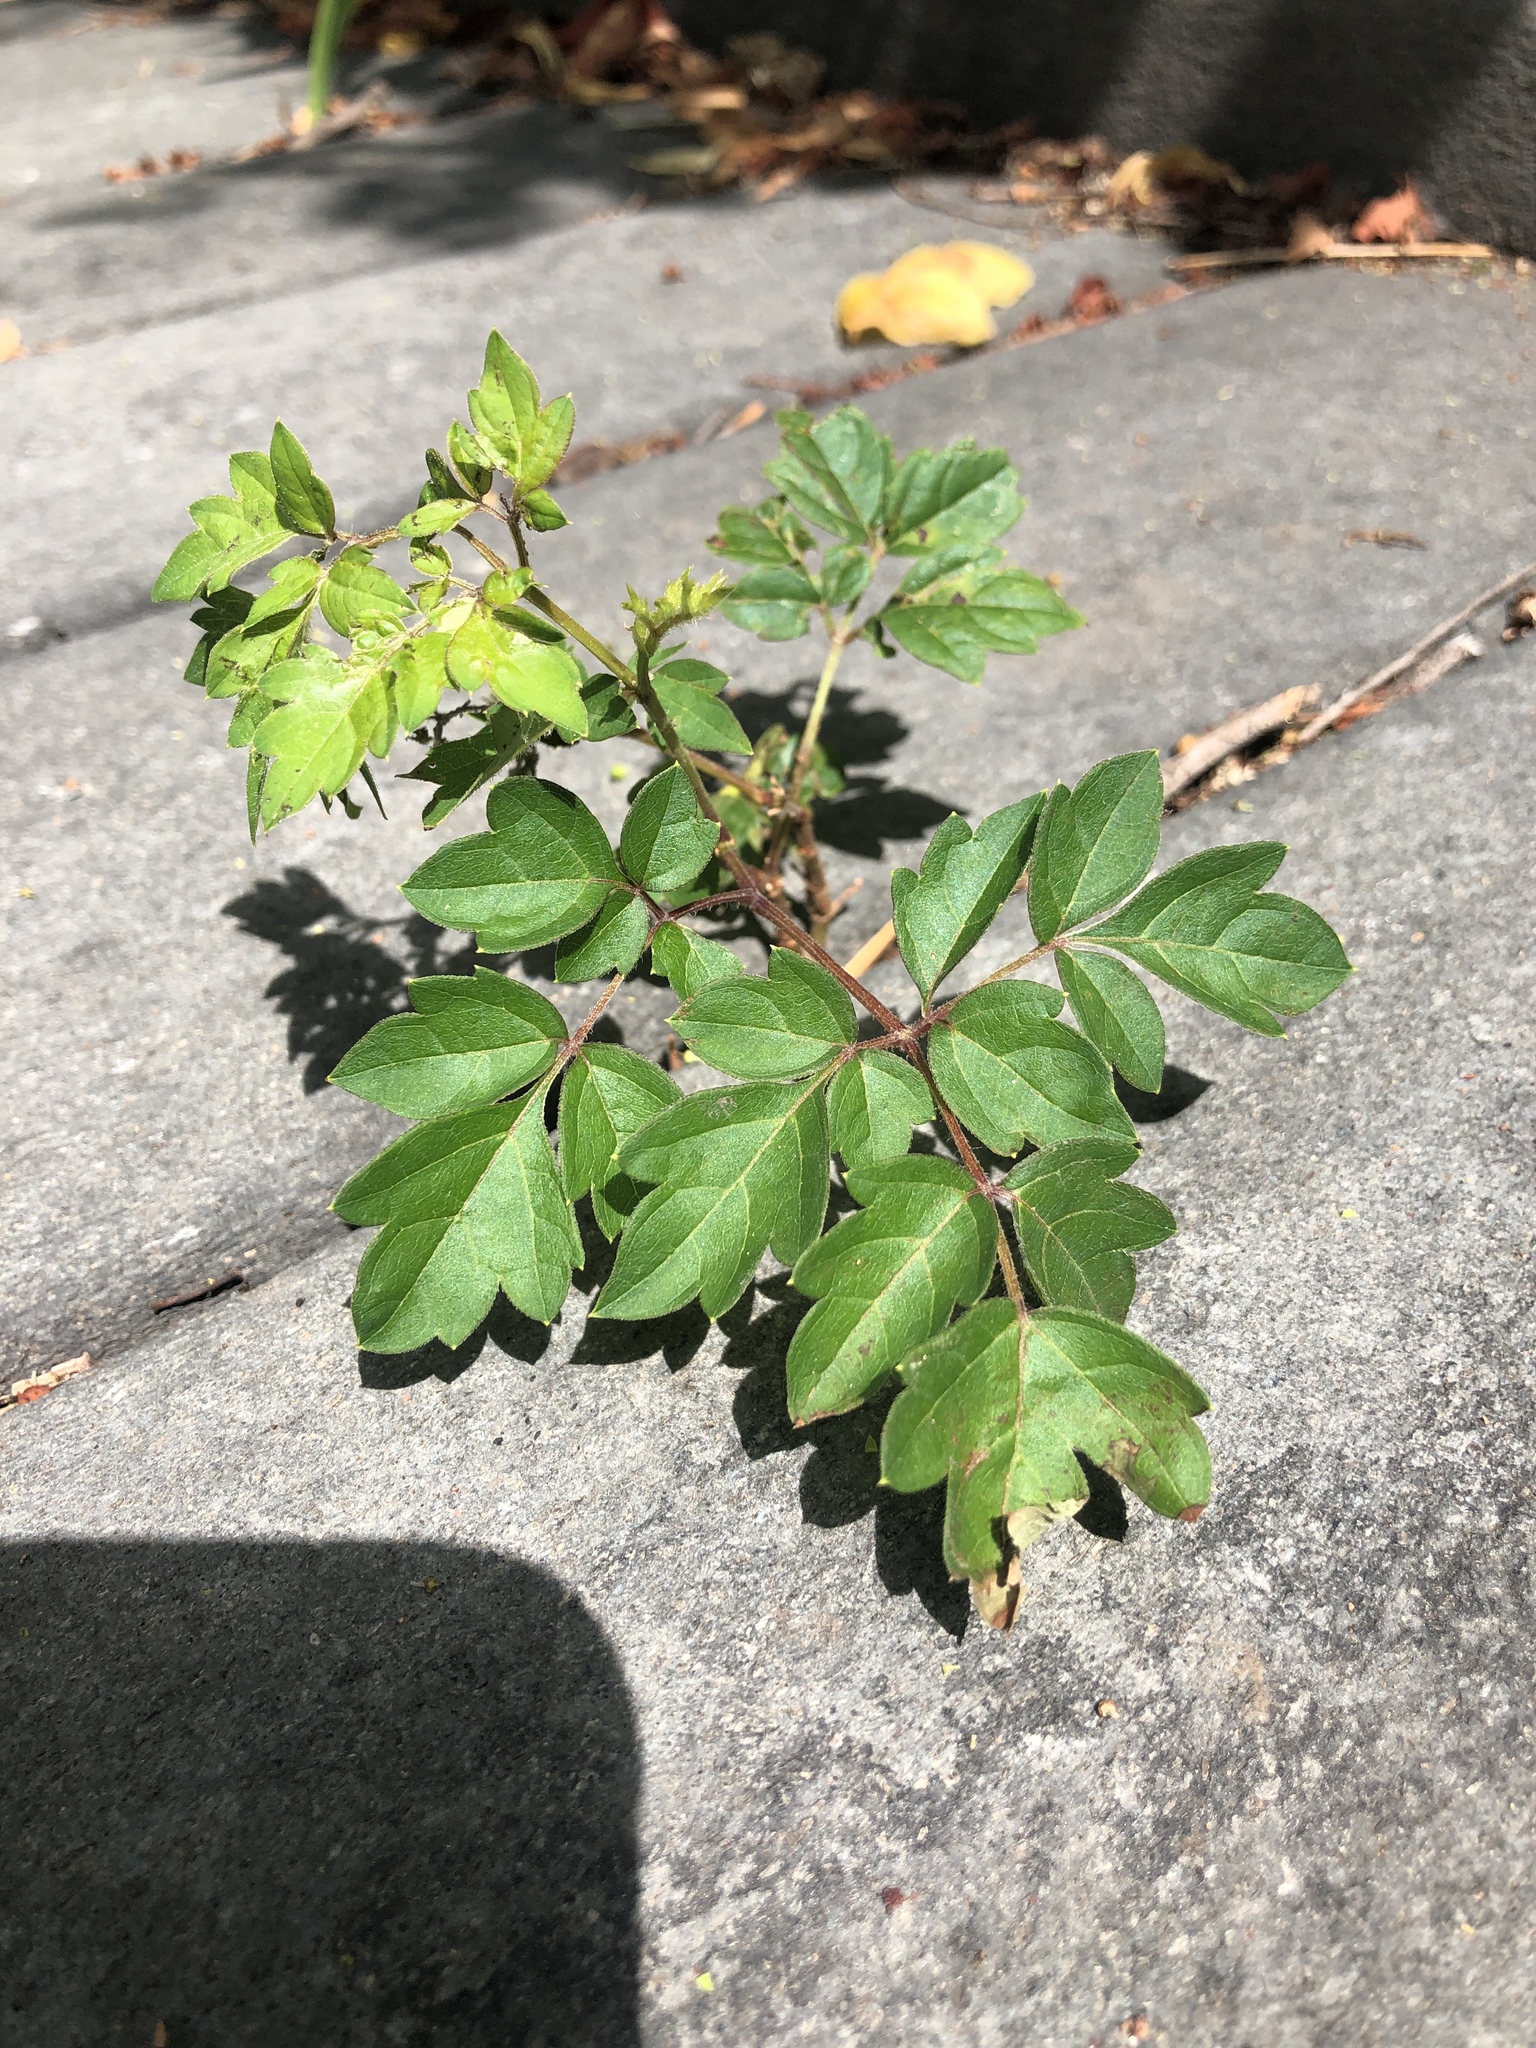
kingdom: Plantae
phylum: Tracheophyta
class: Magnoliopsida
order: Vitales
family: Vitaceae
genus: Nekemias
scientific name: Nekemias arborea
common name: Peppervine
